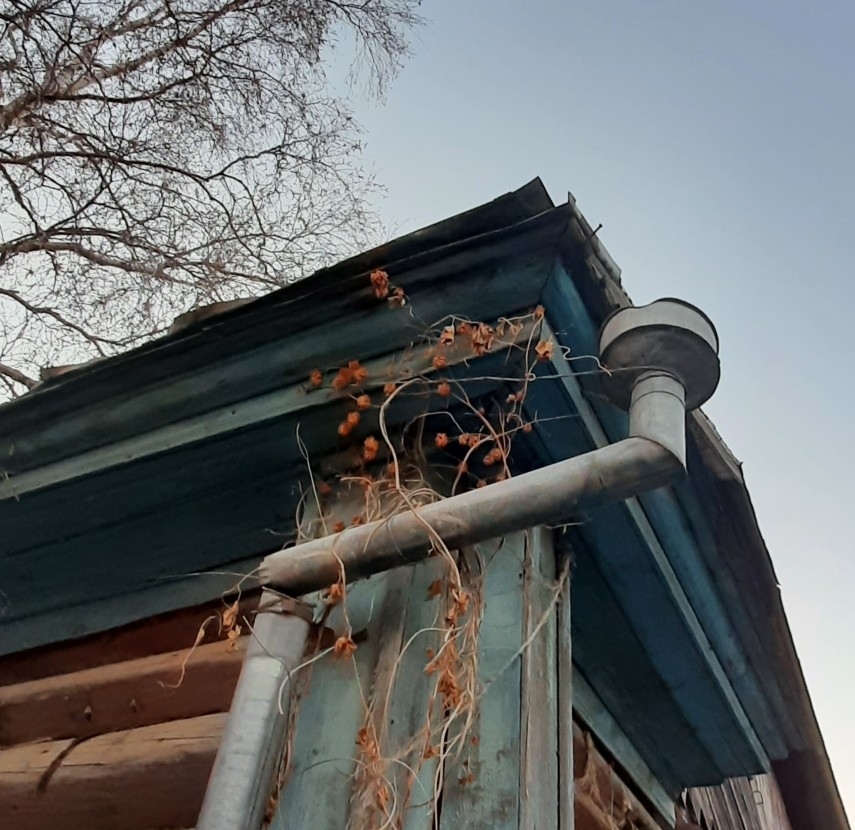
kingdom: Plantae
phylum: Tracheophyta
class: Magnoliopsida
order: Rosales
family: Cannabaceae
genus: Humulus
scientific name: Humulus lupulus
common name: Hop
